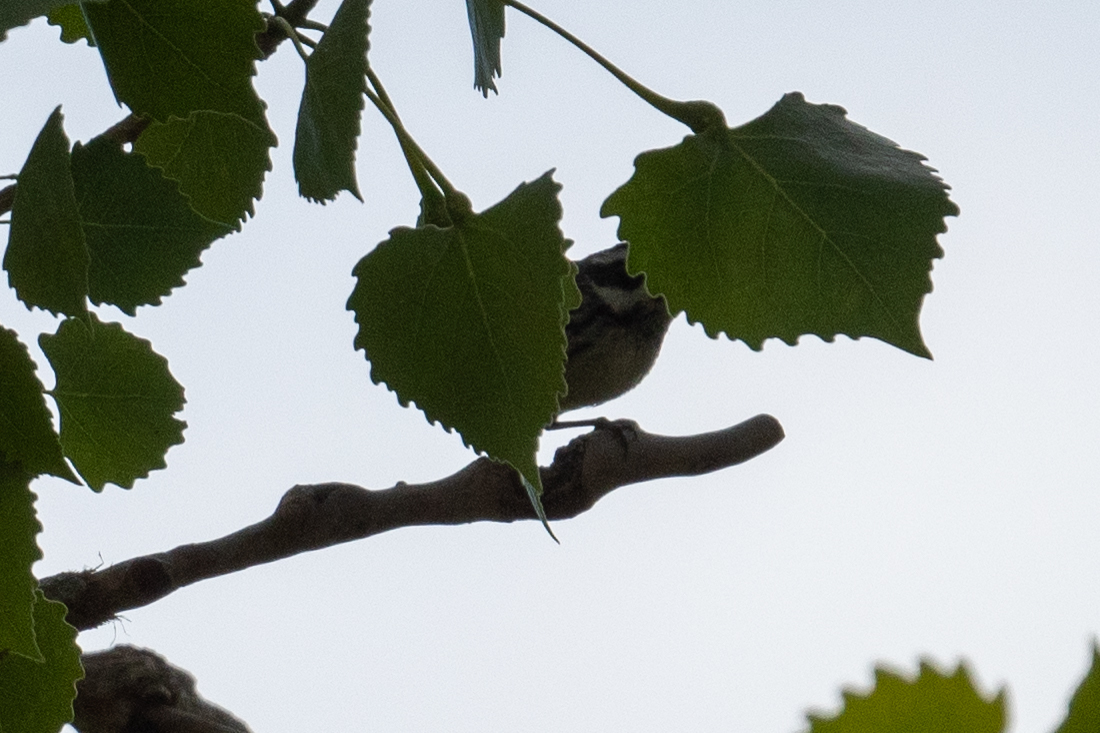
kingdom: Animalia
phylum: Chordata
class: Aves
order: Passeriformes
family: Parulidae
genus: Setophaga
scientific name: Setophaga nigrescens
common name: Black-throated gray warbler
